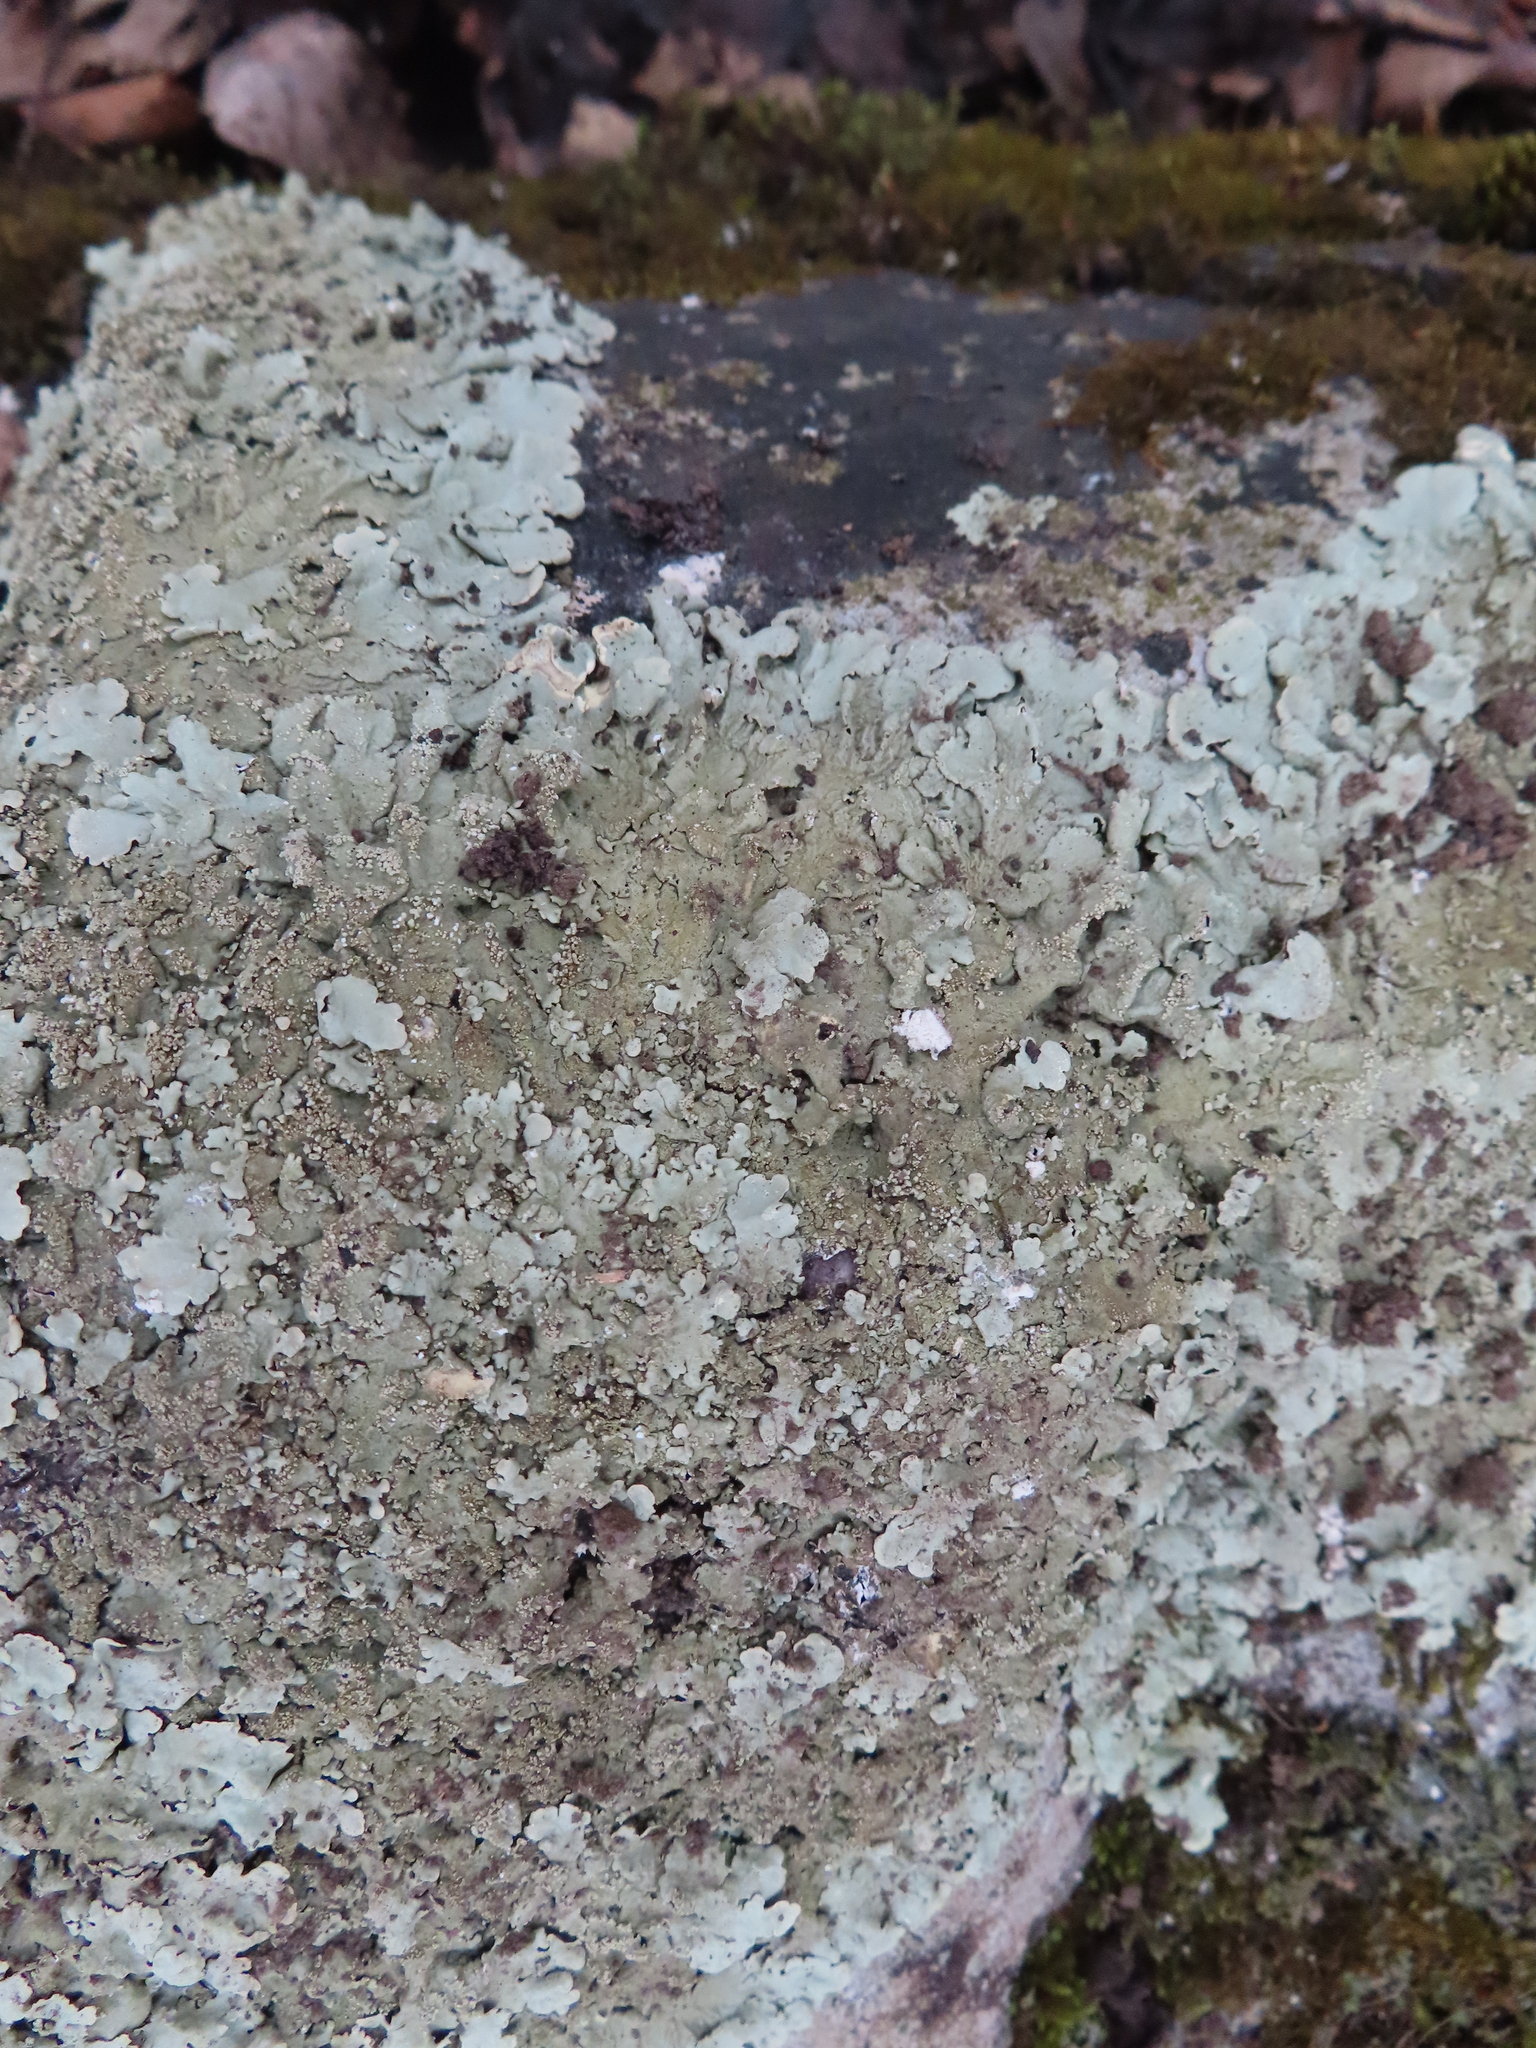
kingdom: Fungi
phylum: Ascomycota
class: Lecanoromycetes
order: Lecanorales
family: Parmeliaceae
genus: Flavoparmelia
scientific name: Flavoparmelia baltimorensis
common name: Rock greenshield
